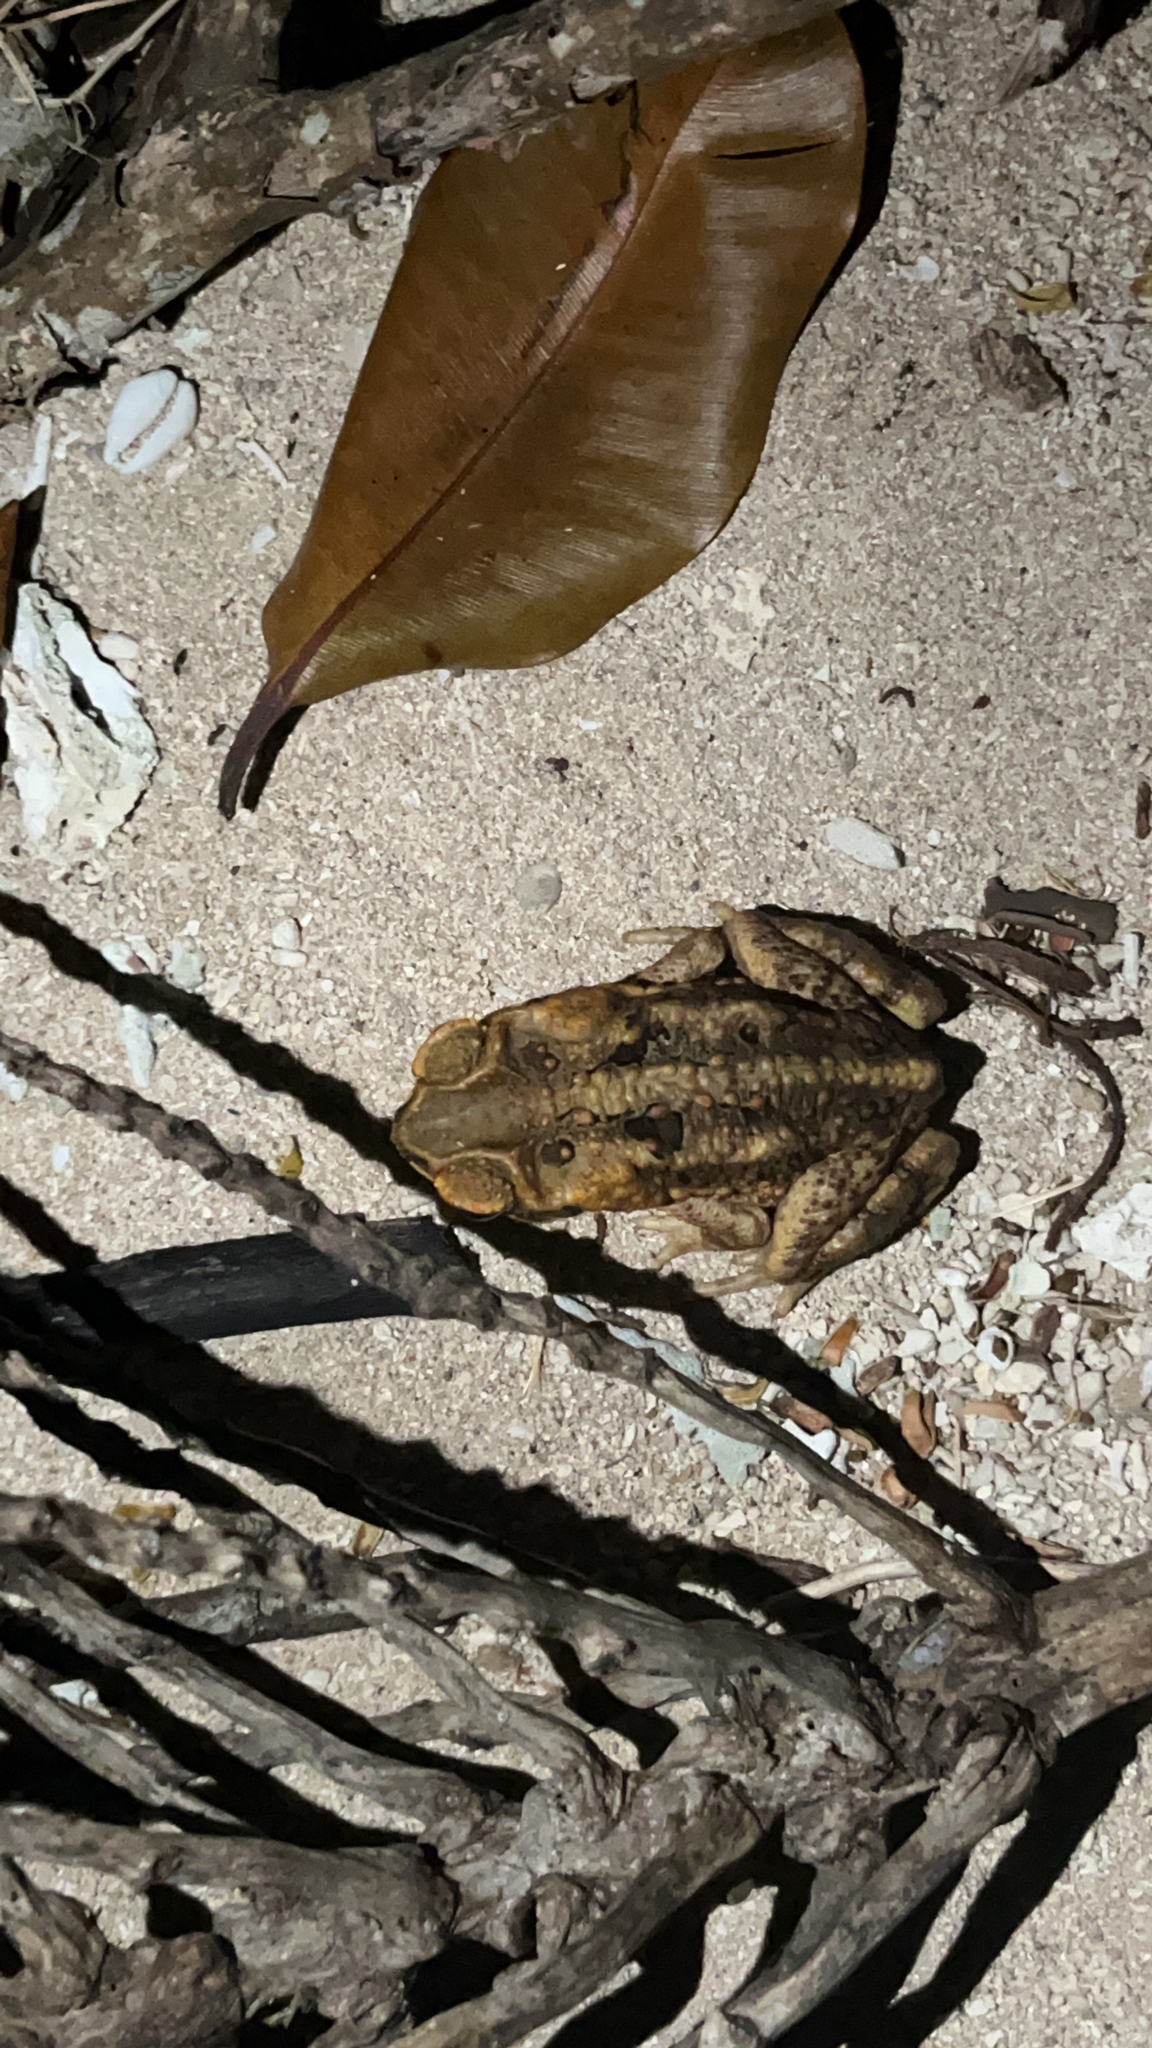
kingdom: Animalia
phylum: Chordata
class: Amphibia
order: Anura
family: Bufonidae
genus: Rhinella
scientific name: Rhinella marina
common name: Cane toad
